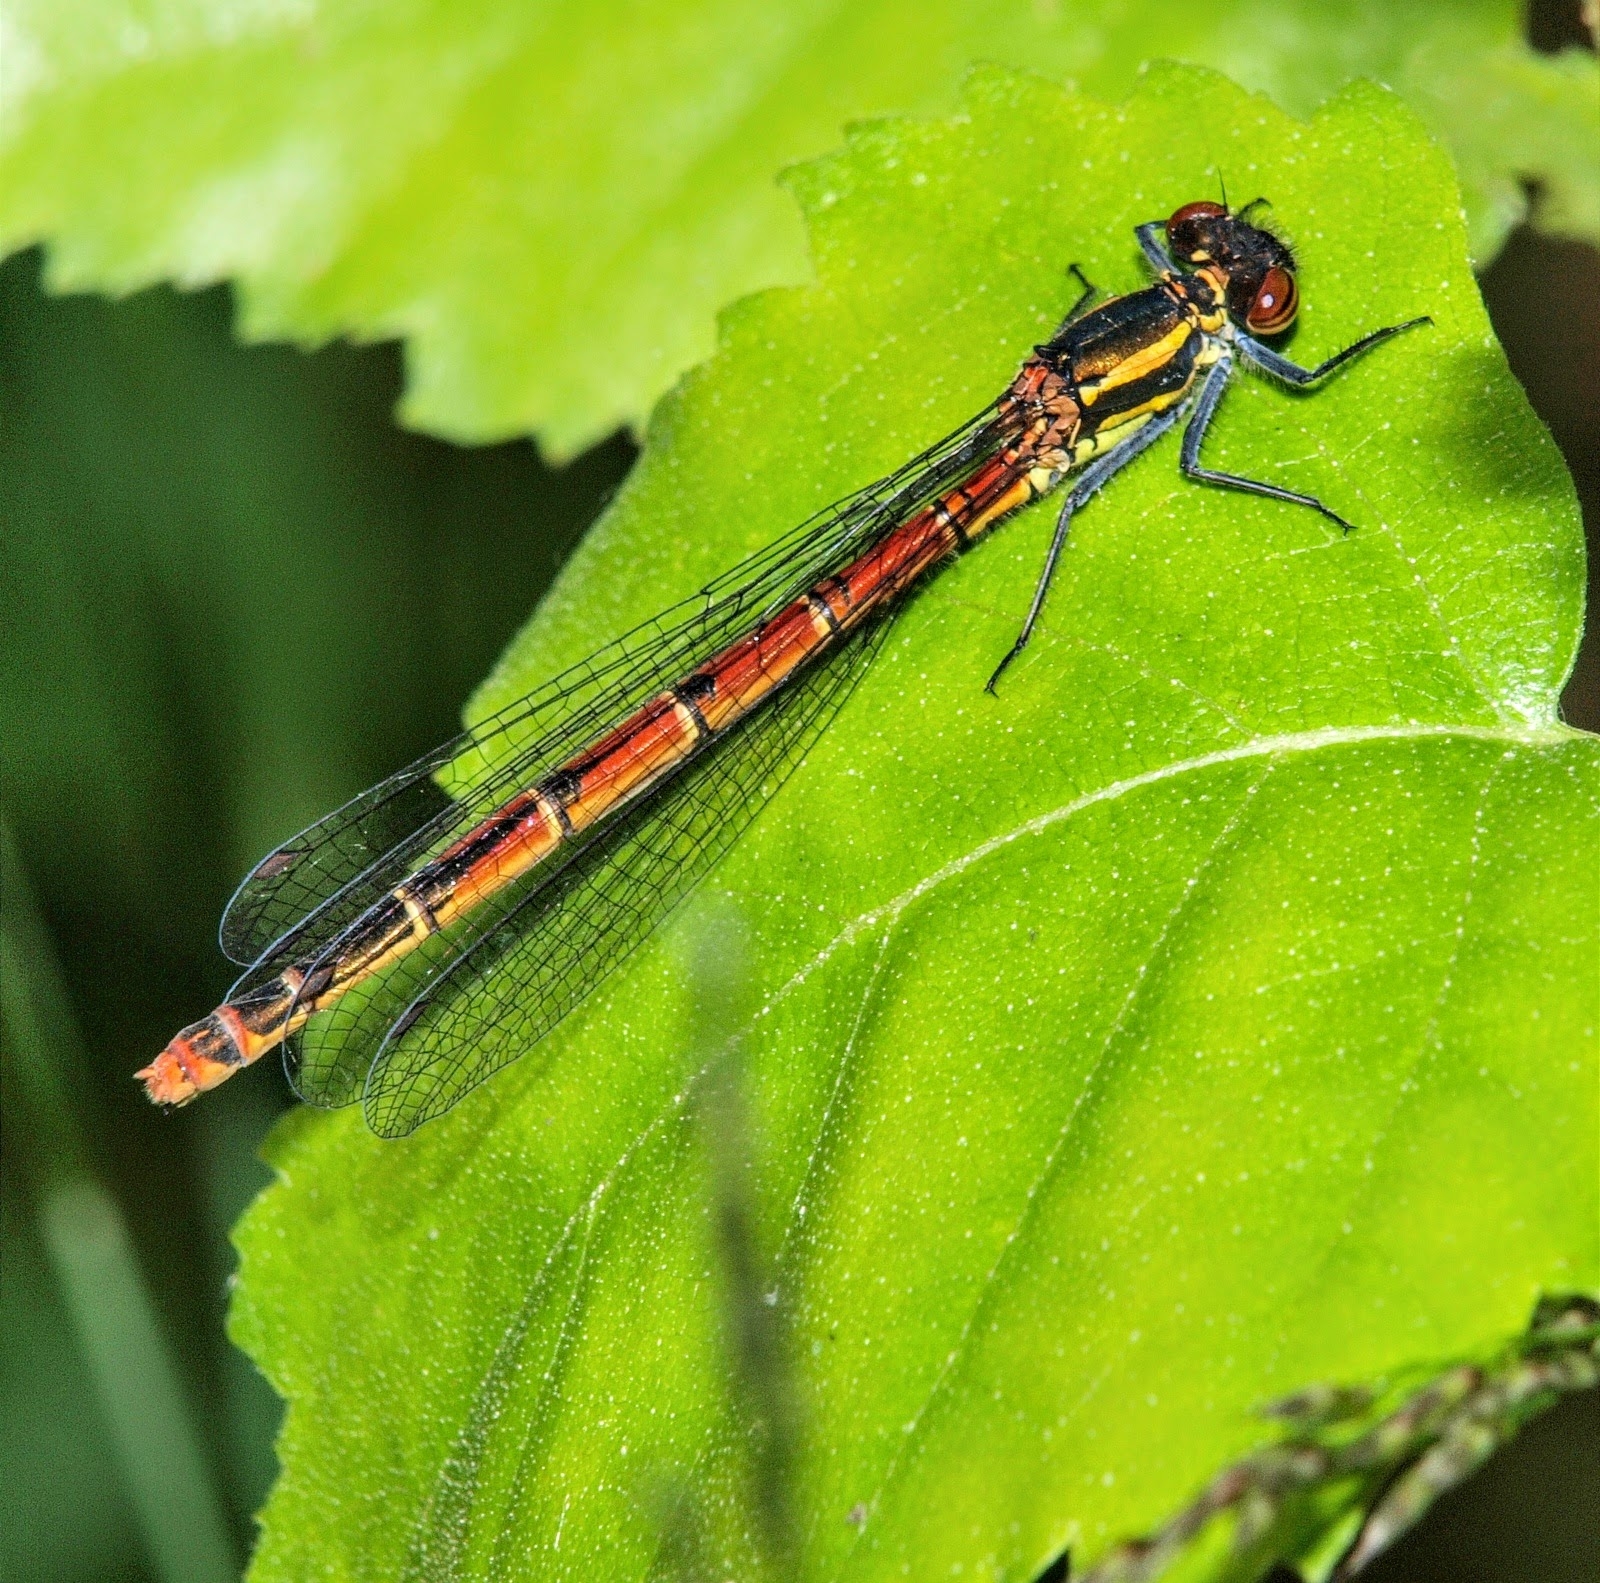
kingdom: Animalia
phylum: Arthropoda
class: Insecta
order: Odonata
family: Coenagrionidae
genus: Pyrrhosoma
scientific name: Pyrrhosoma nymphula
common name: Large red damsel
